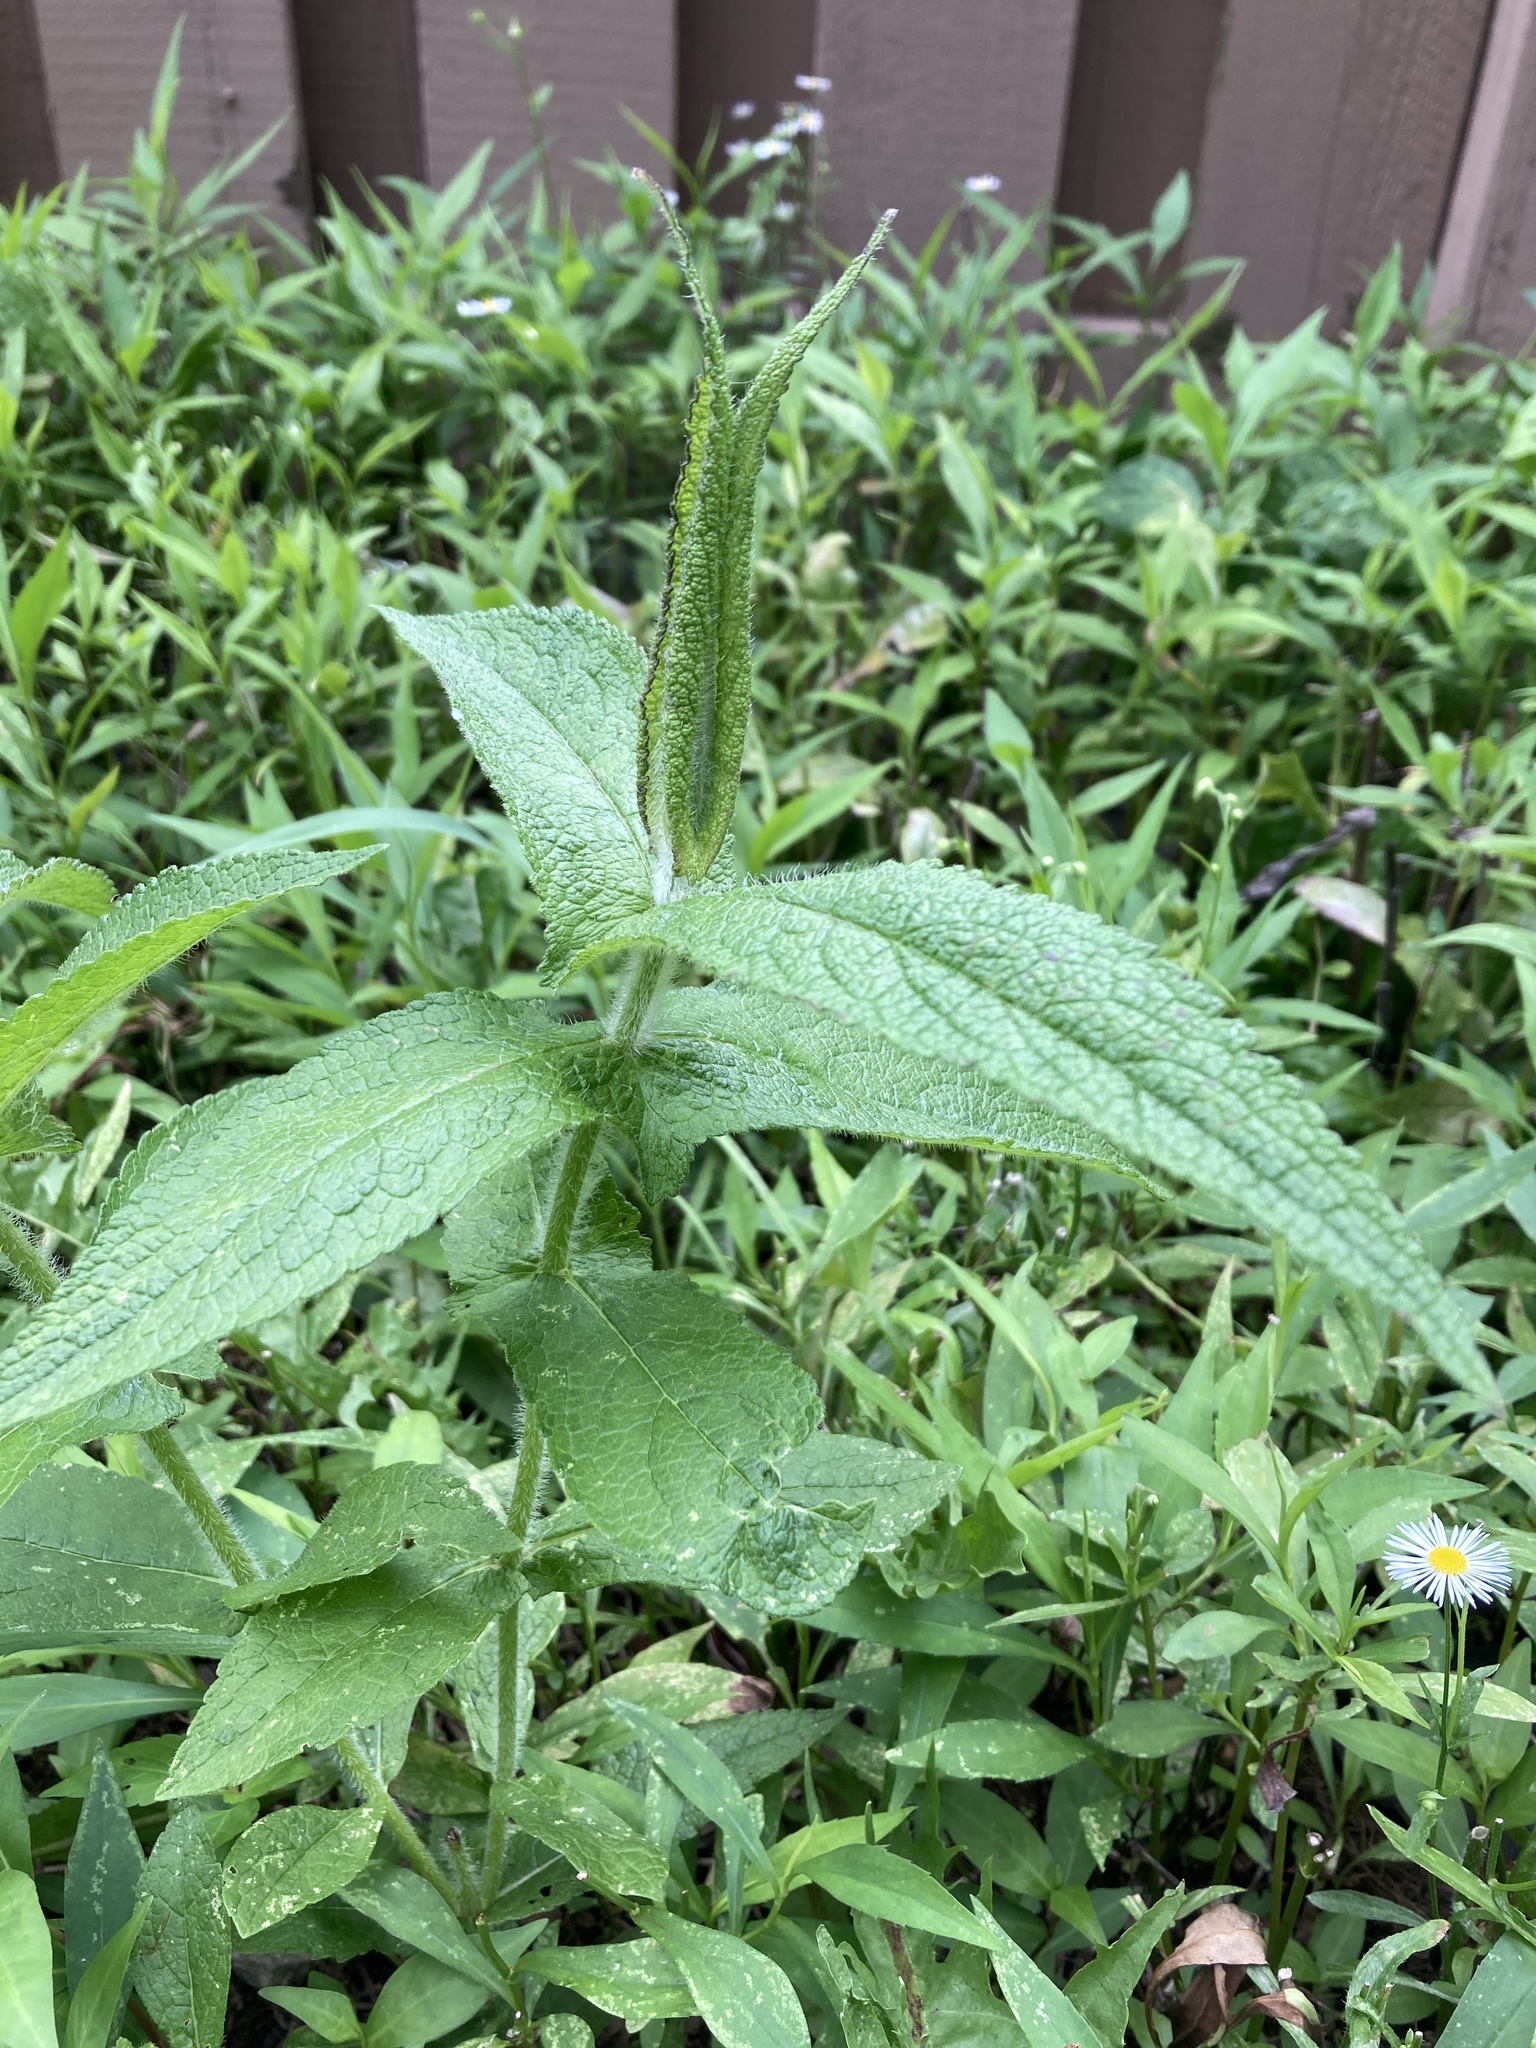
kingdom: Plantae
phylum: Tracheophyta
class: Magnoliopsida
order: Asterales
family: Asteraceae
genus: Eupatorium
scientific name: Eupatorium perfoliatum
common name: Boneset
